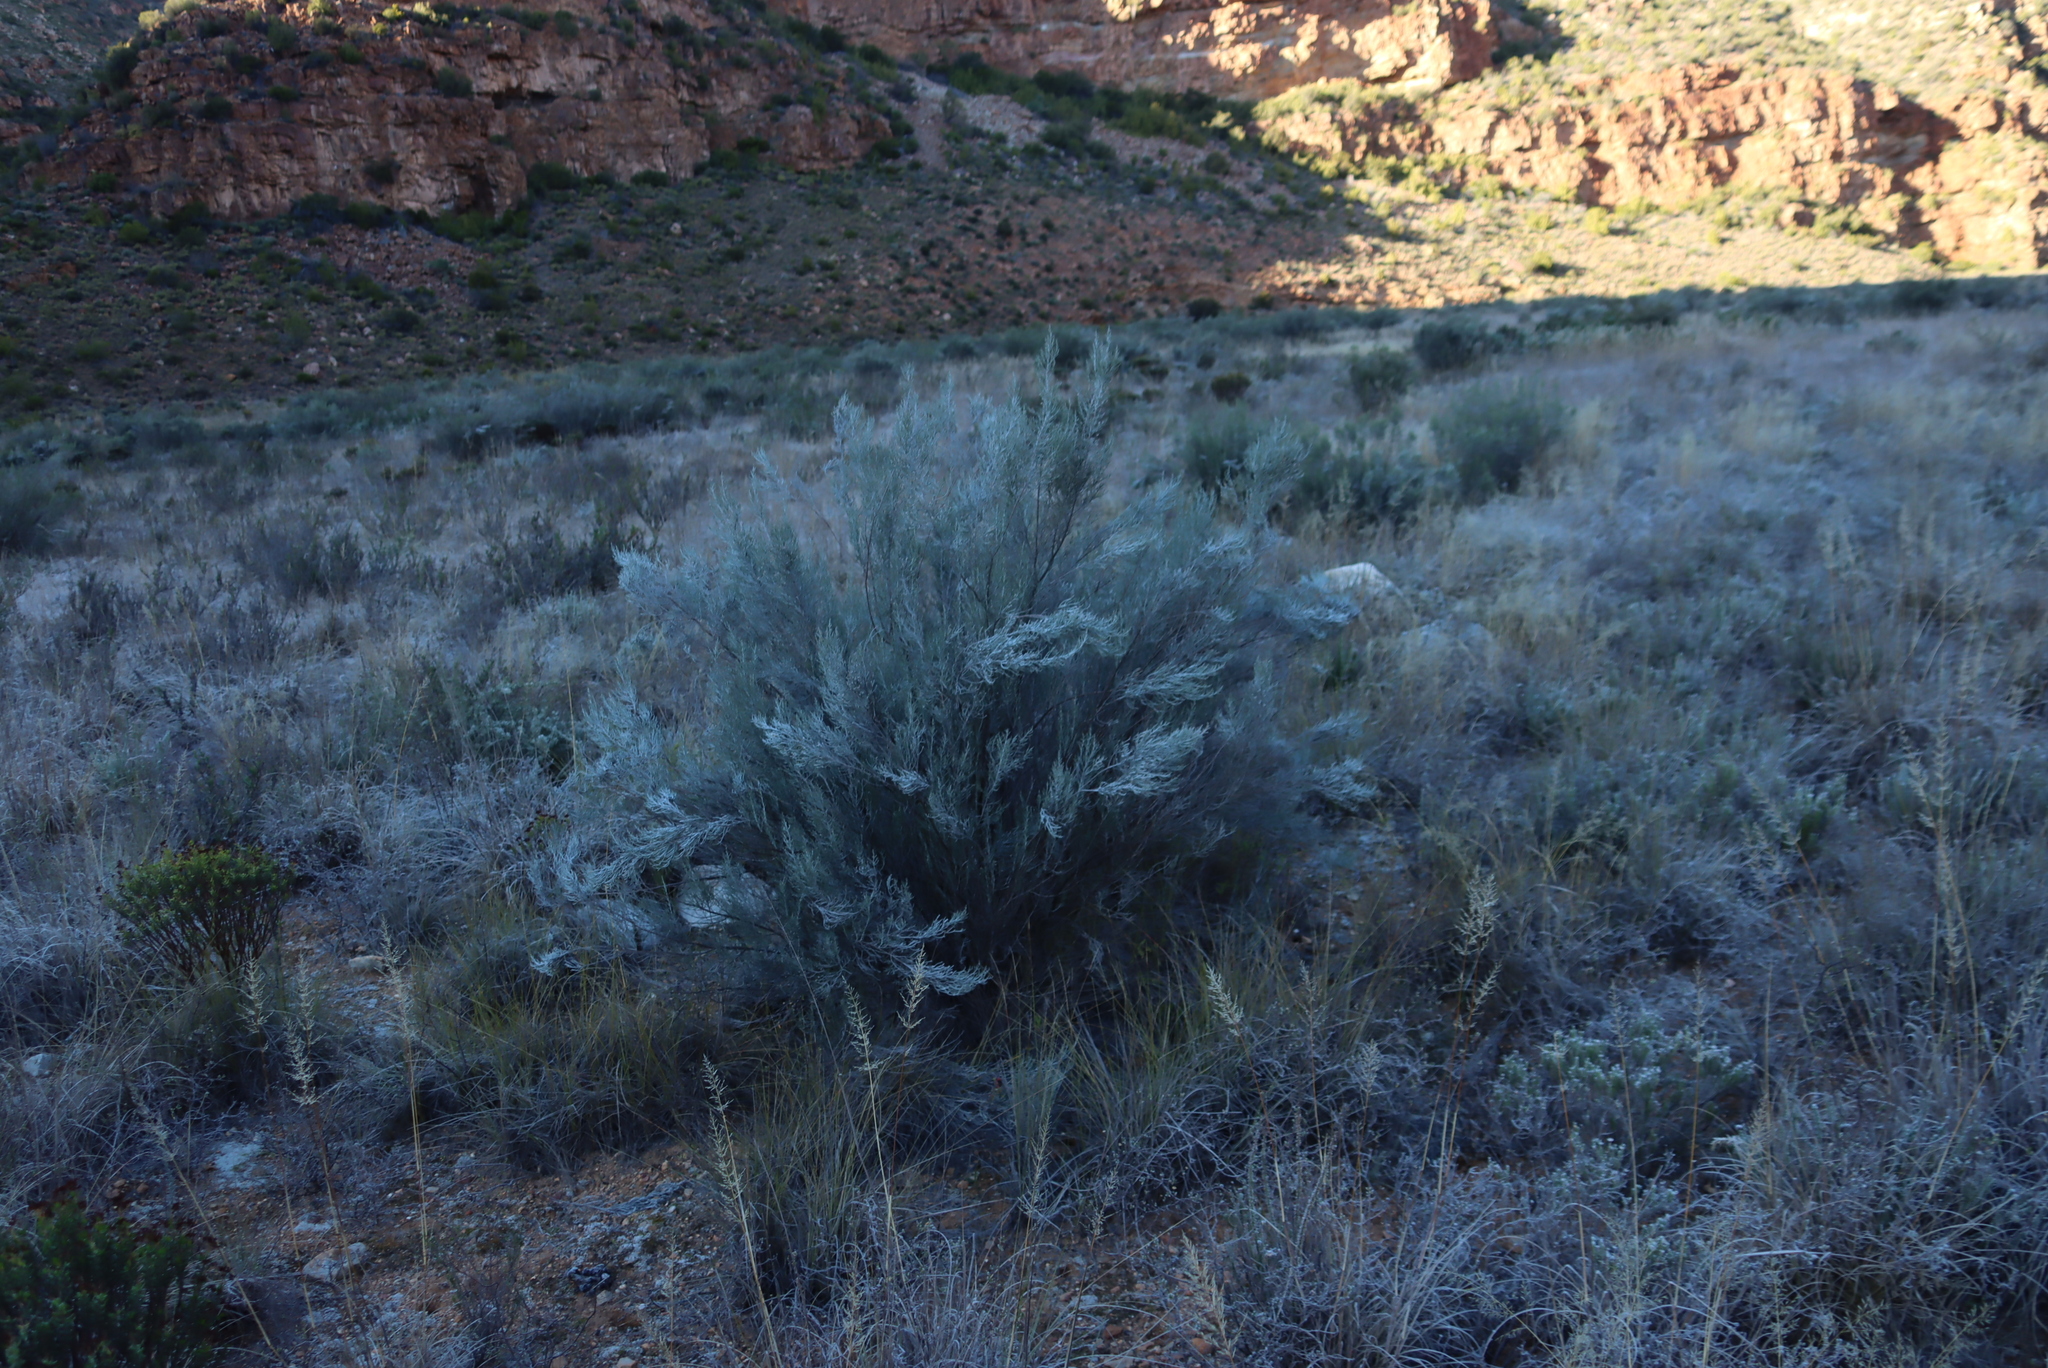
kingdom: Plantae
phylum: Tracheophyta
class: Magnoliopsida
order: Asterales
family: Asteraceae
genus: Dicerothamnus
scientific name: Dicerothamnus rhinocerotis
